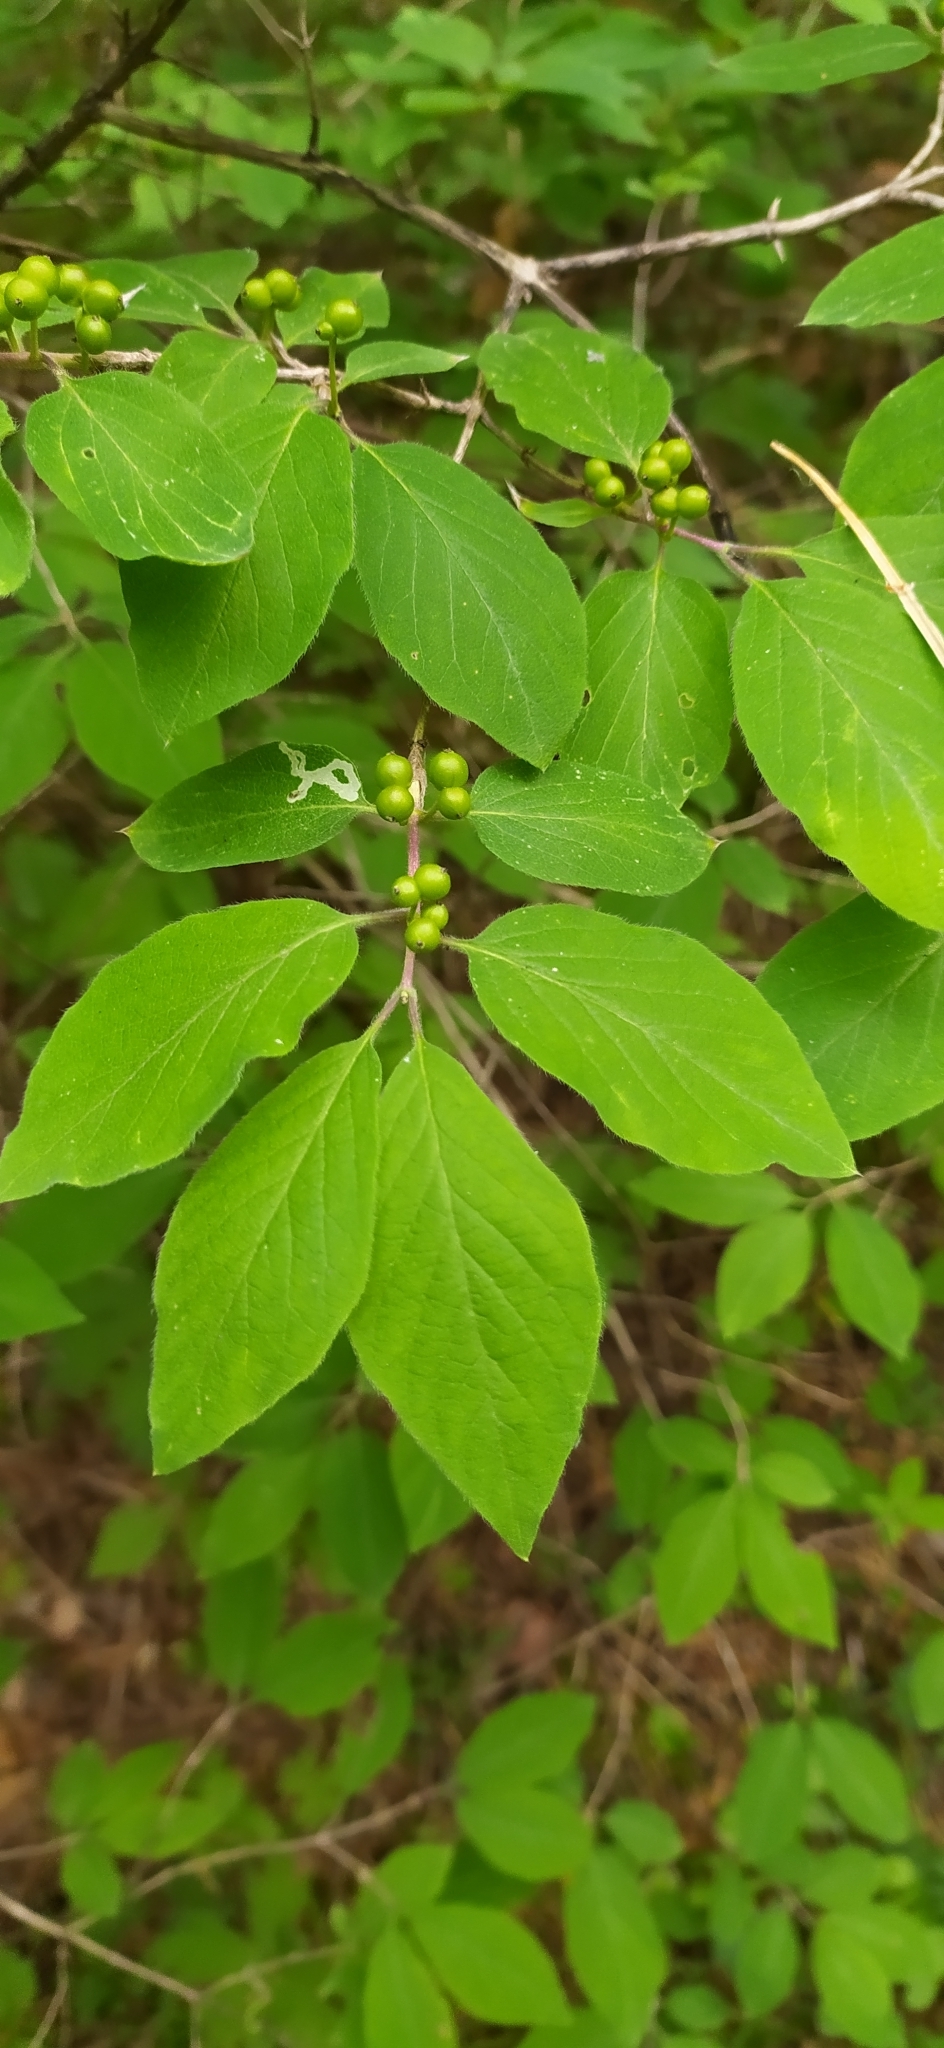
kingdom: Plantae
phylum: Tracheophyta
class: Magnoliopsida
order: Dipsacales
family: Caprifoliaceae
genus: Lonicera
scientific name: Lonicera xylosteum
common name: Fly honeysuckle
